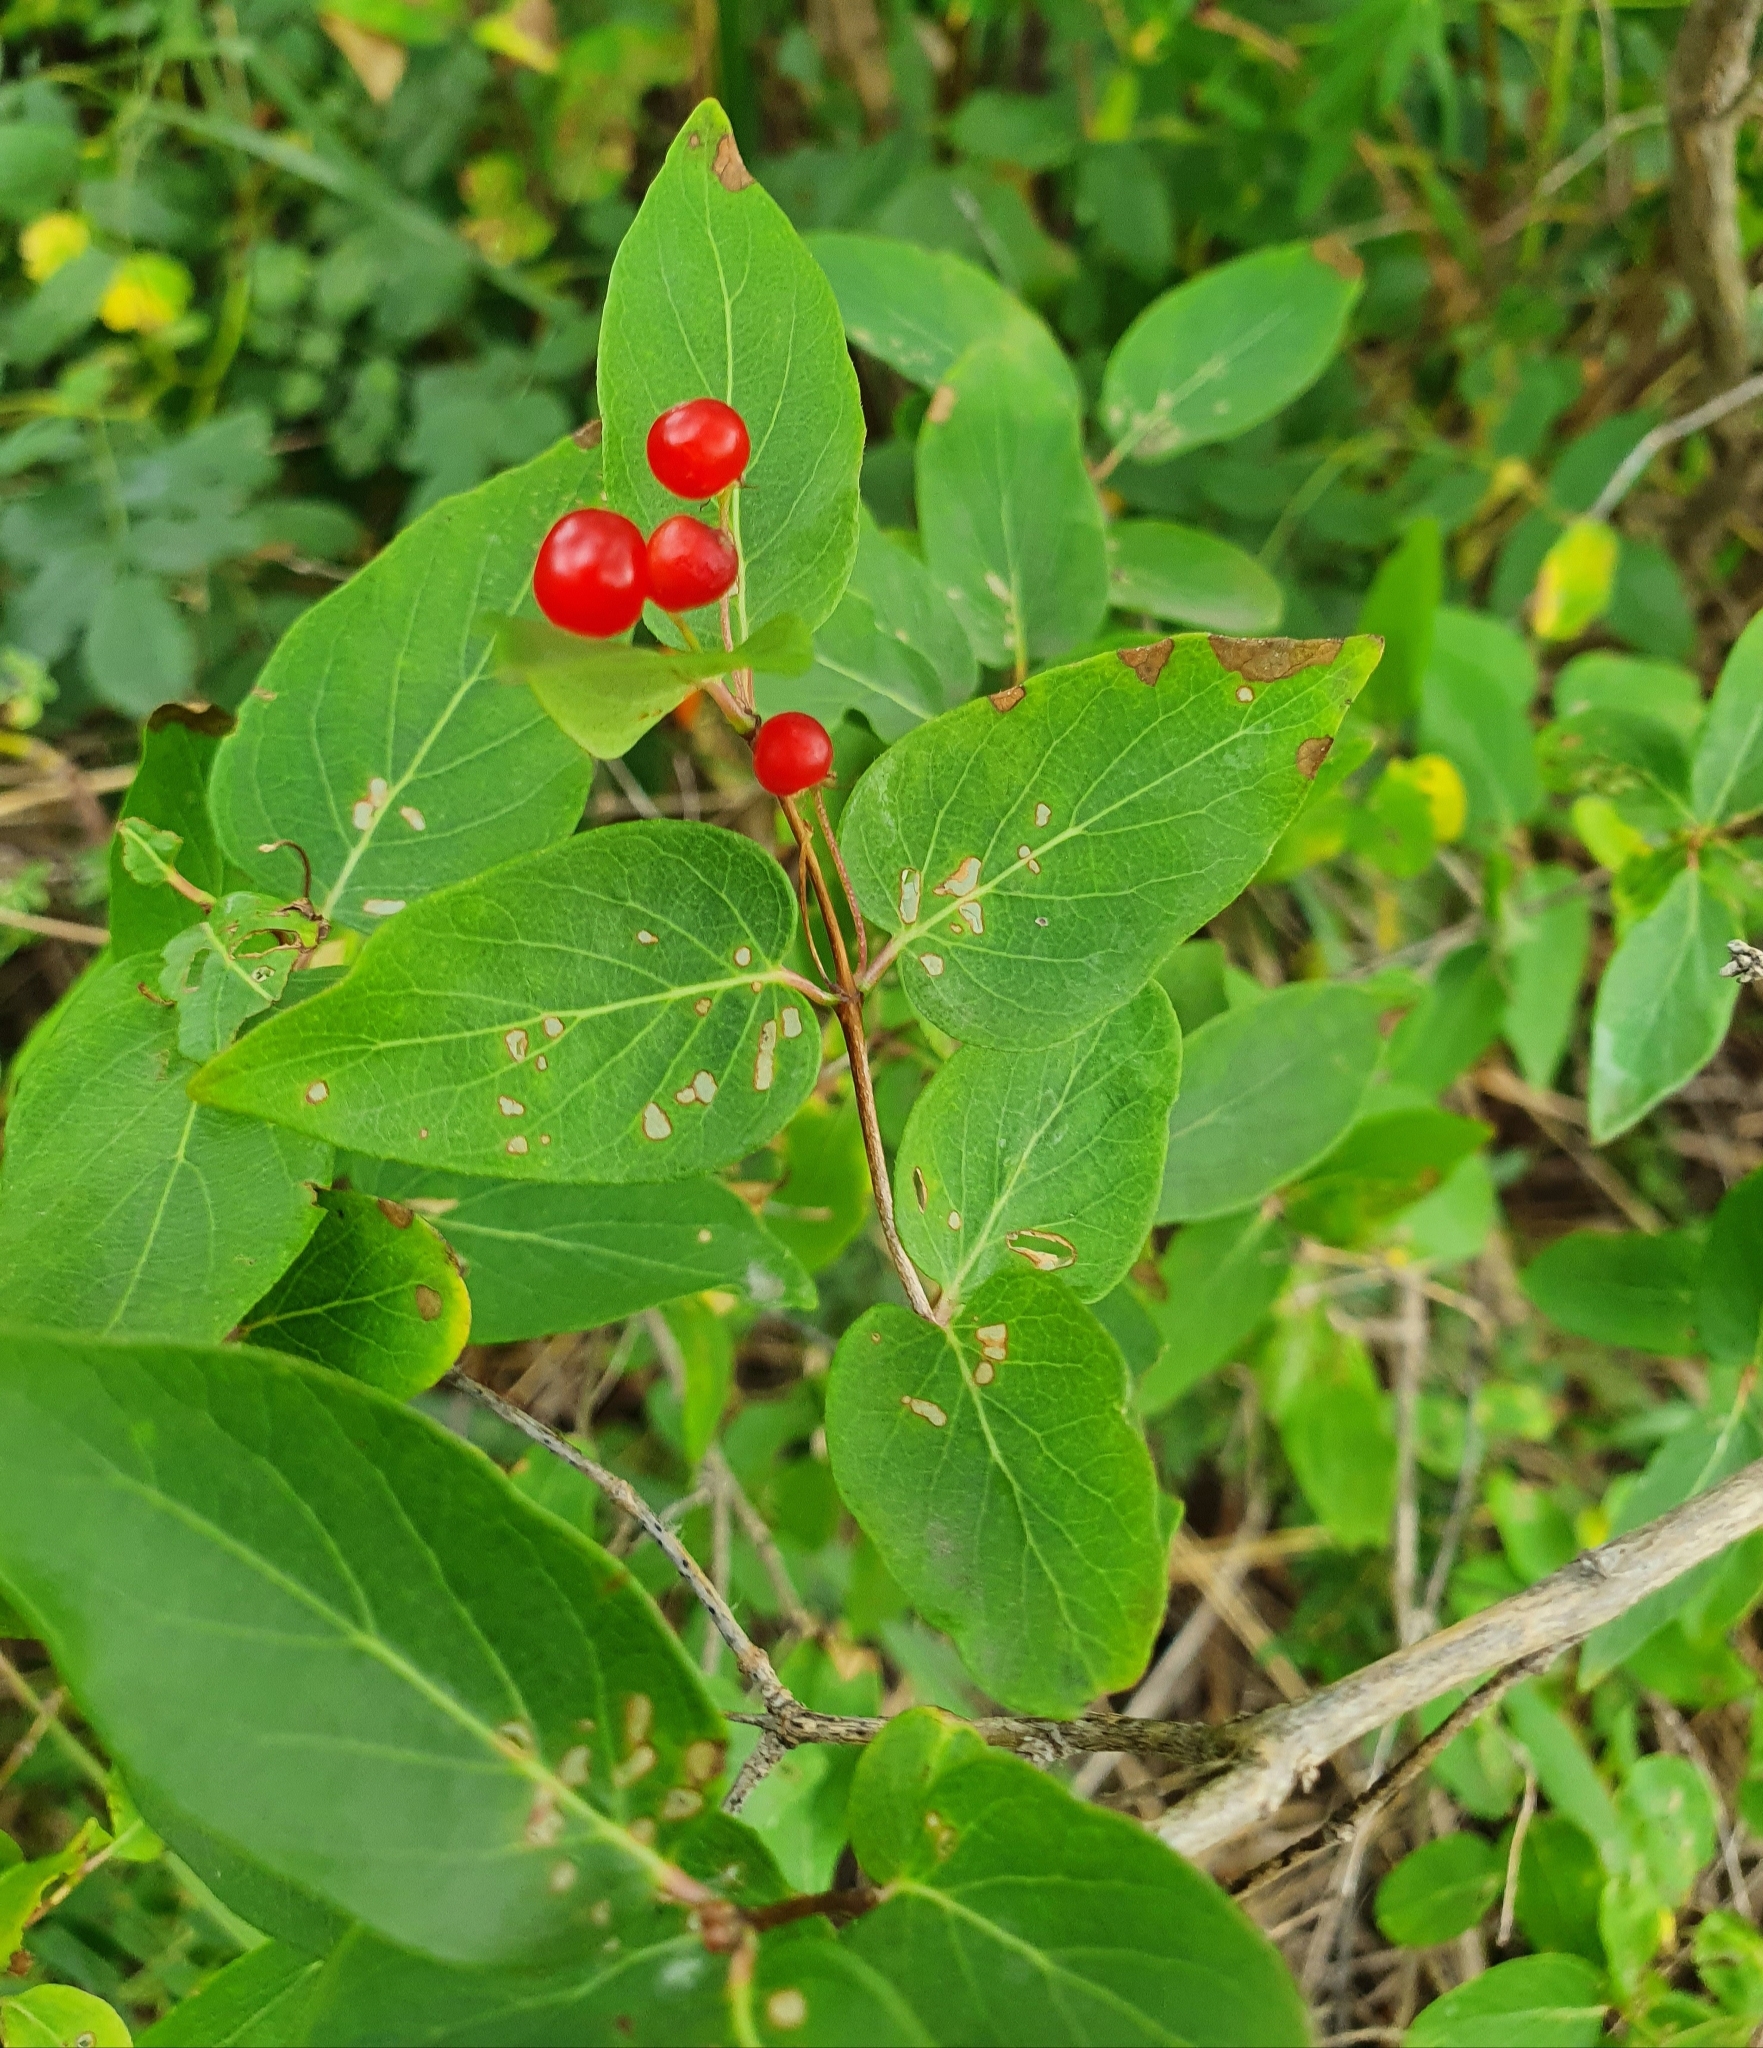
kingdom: Plantae
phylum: Tracheophyta
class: Magnoliopsida
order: Dipsacales
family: Caprifoliaceae
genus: Lonicera
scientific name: Lonicera tatarica
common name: Tatarian honeysuckle
